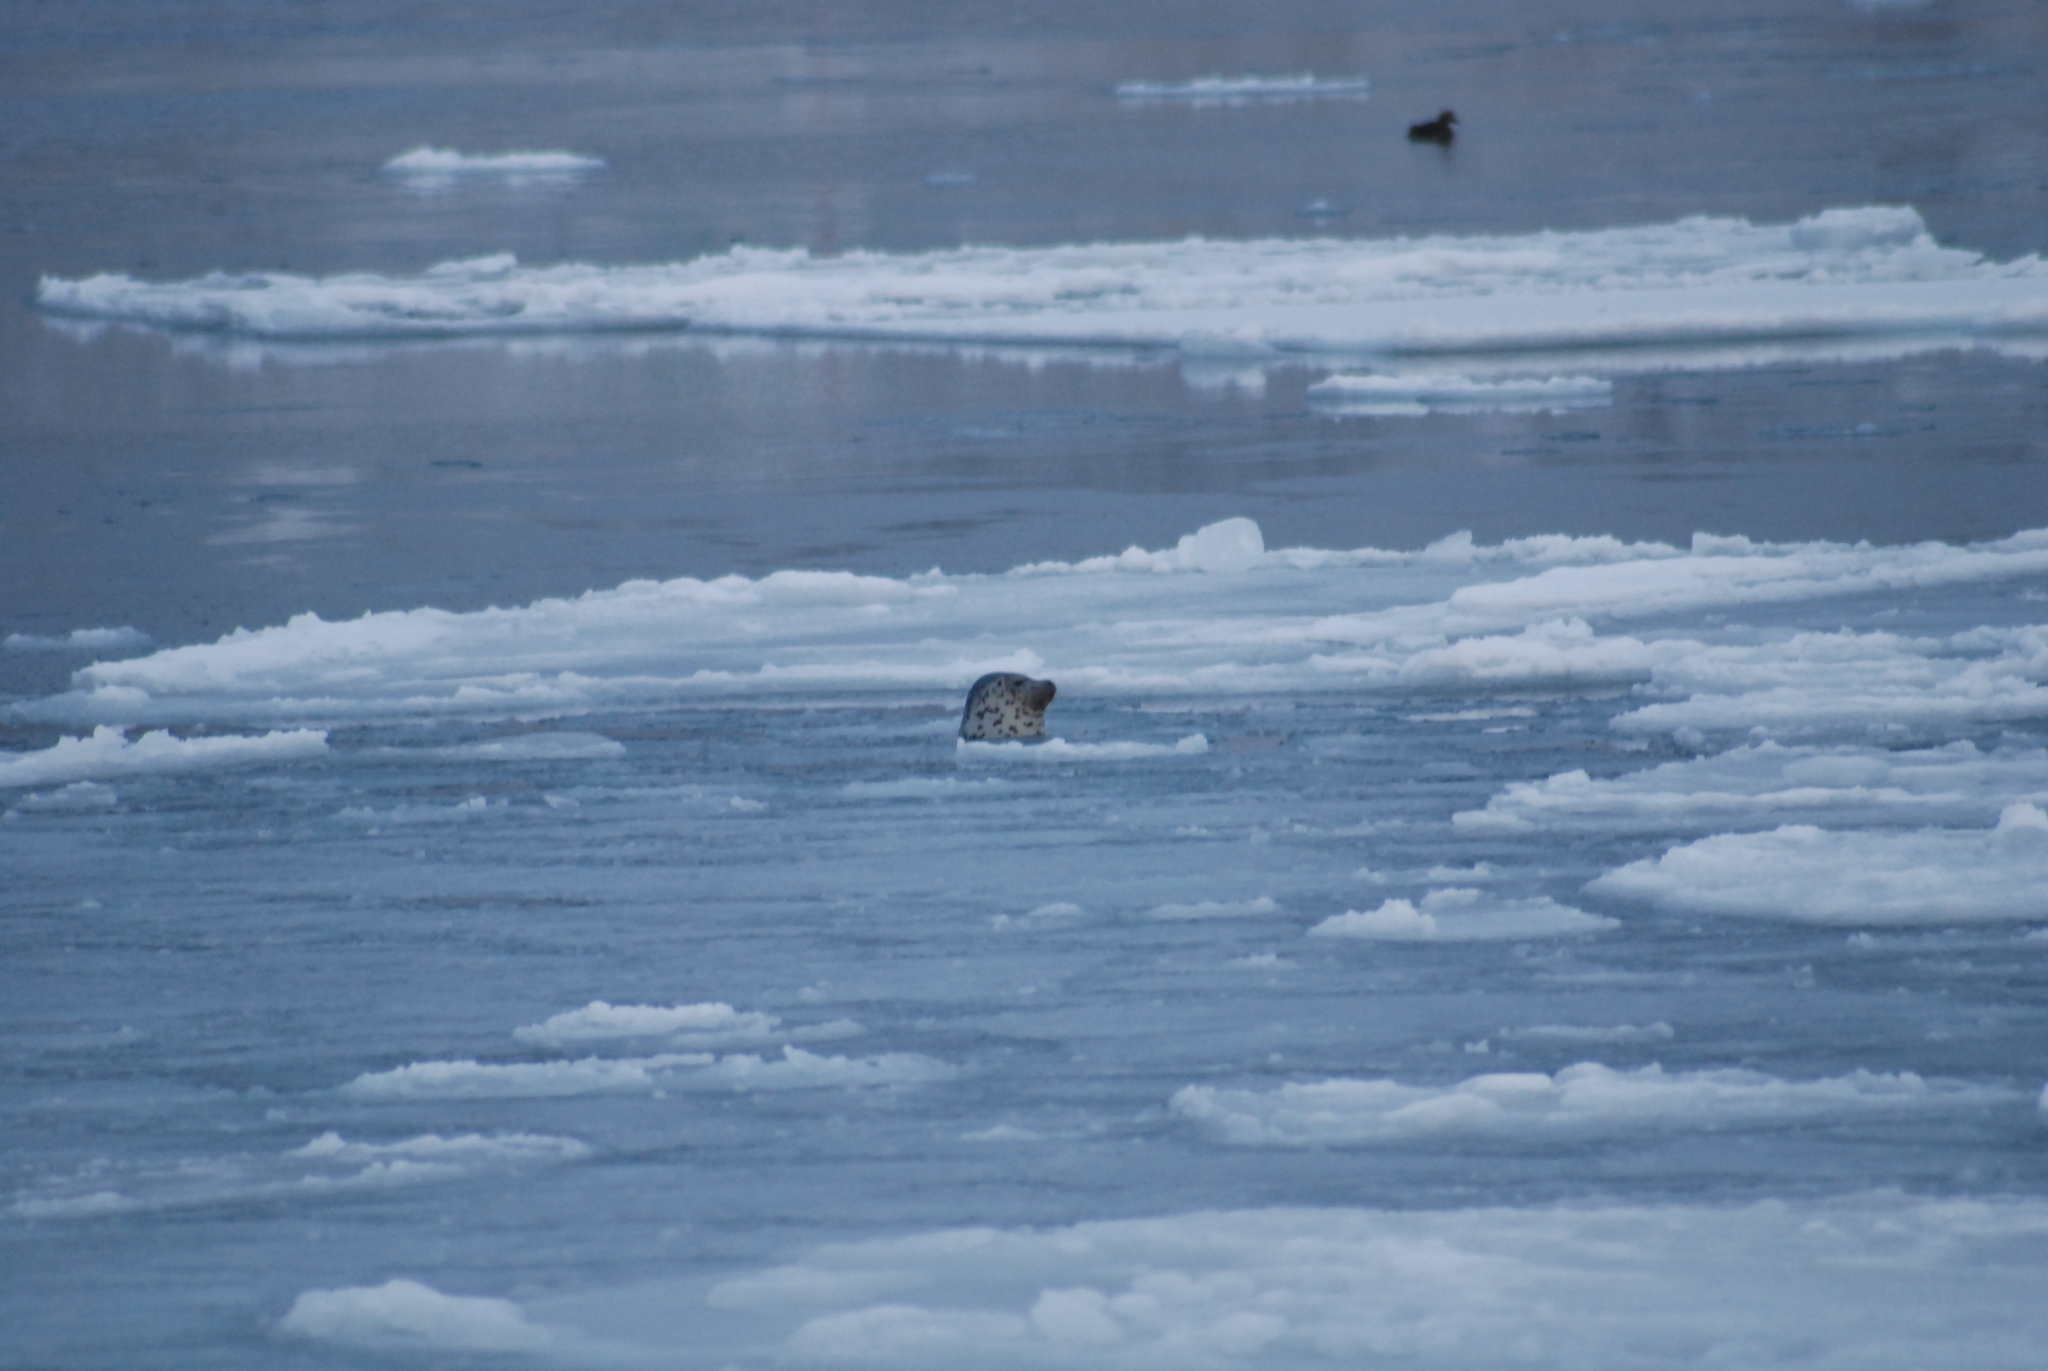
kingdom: Animalia
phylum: Chordata
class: Mammalia
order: Carnivora
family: Phocidae
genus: Phoca
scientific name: Phoca largha
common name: Spotted seal
